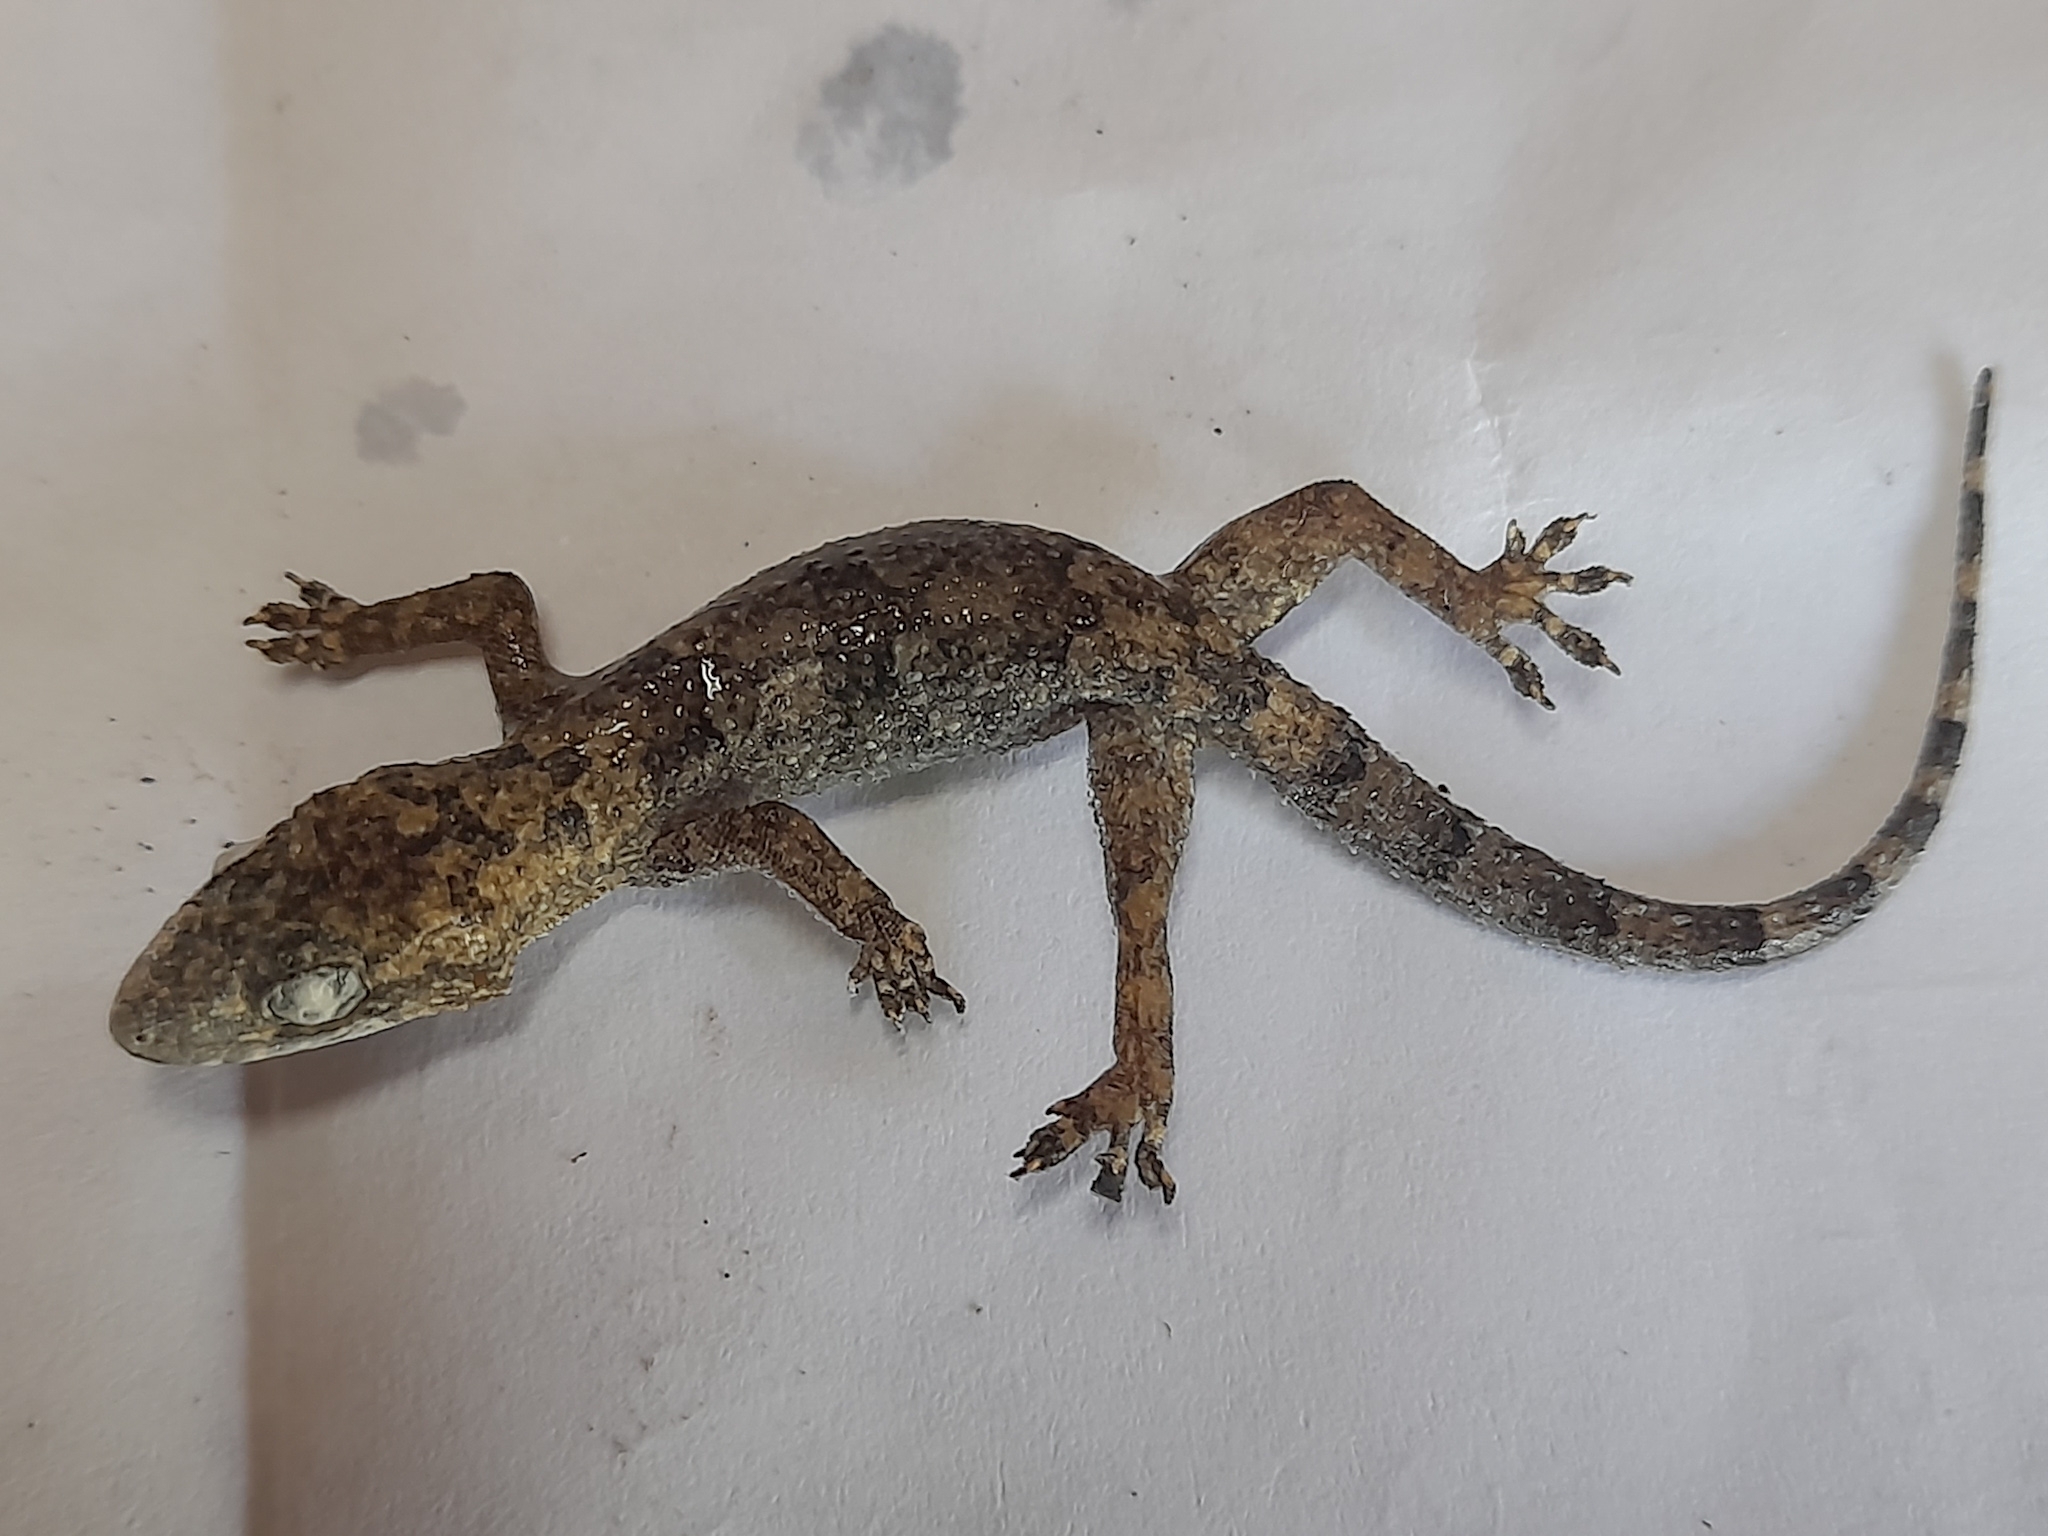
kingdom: Animalia
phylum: Chordata
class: Squamata
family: Gekkonidae
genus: Hemidactylus
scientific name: Hemidactylus mabouia
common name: House gecko
